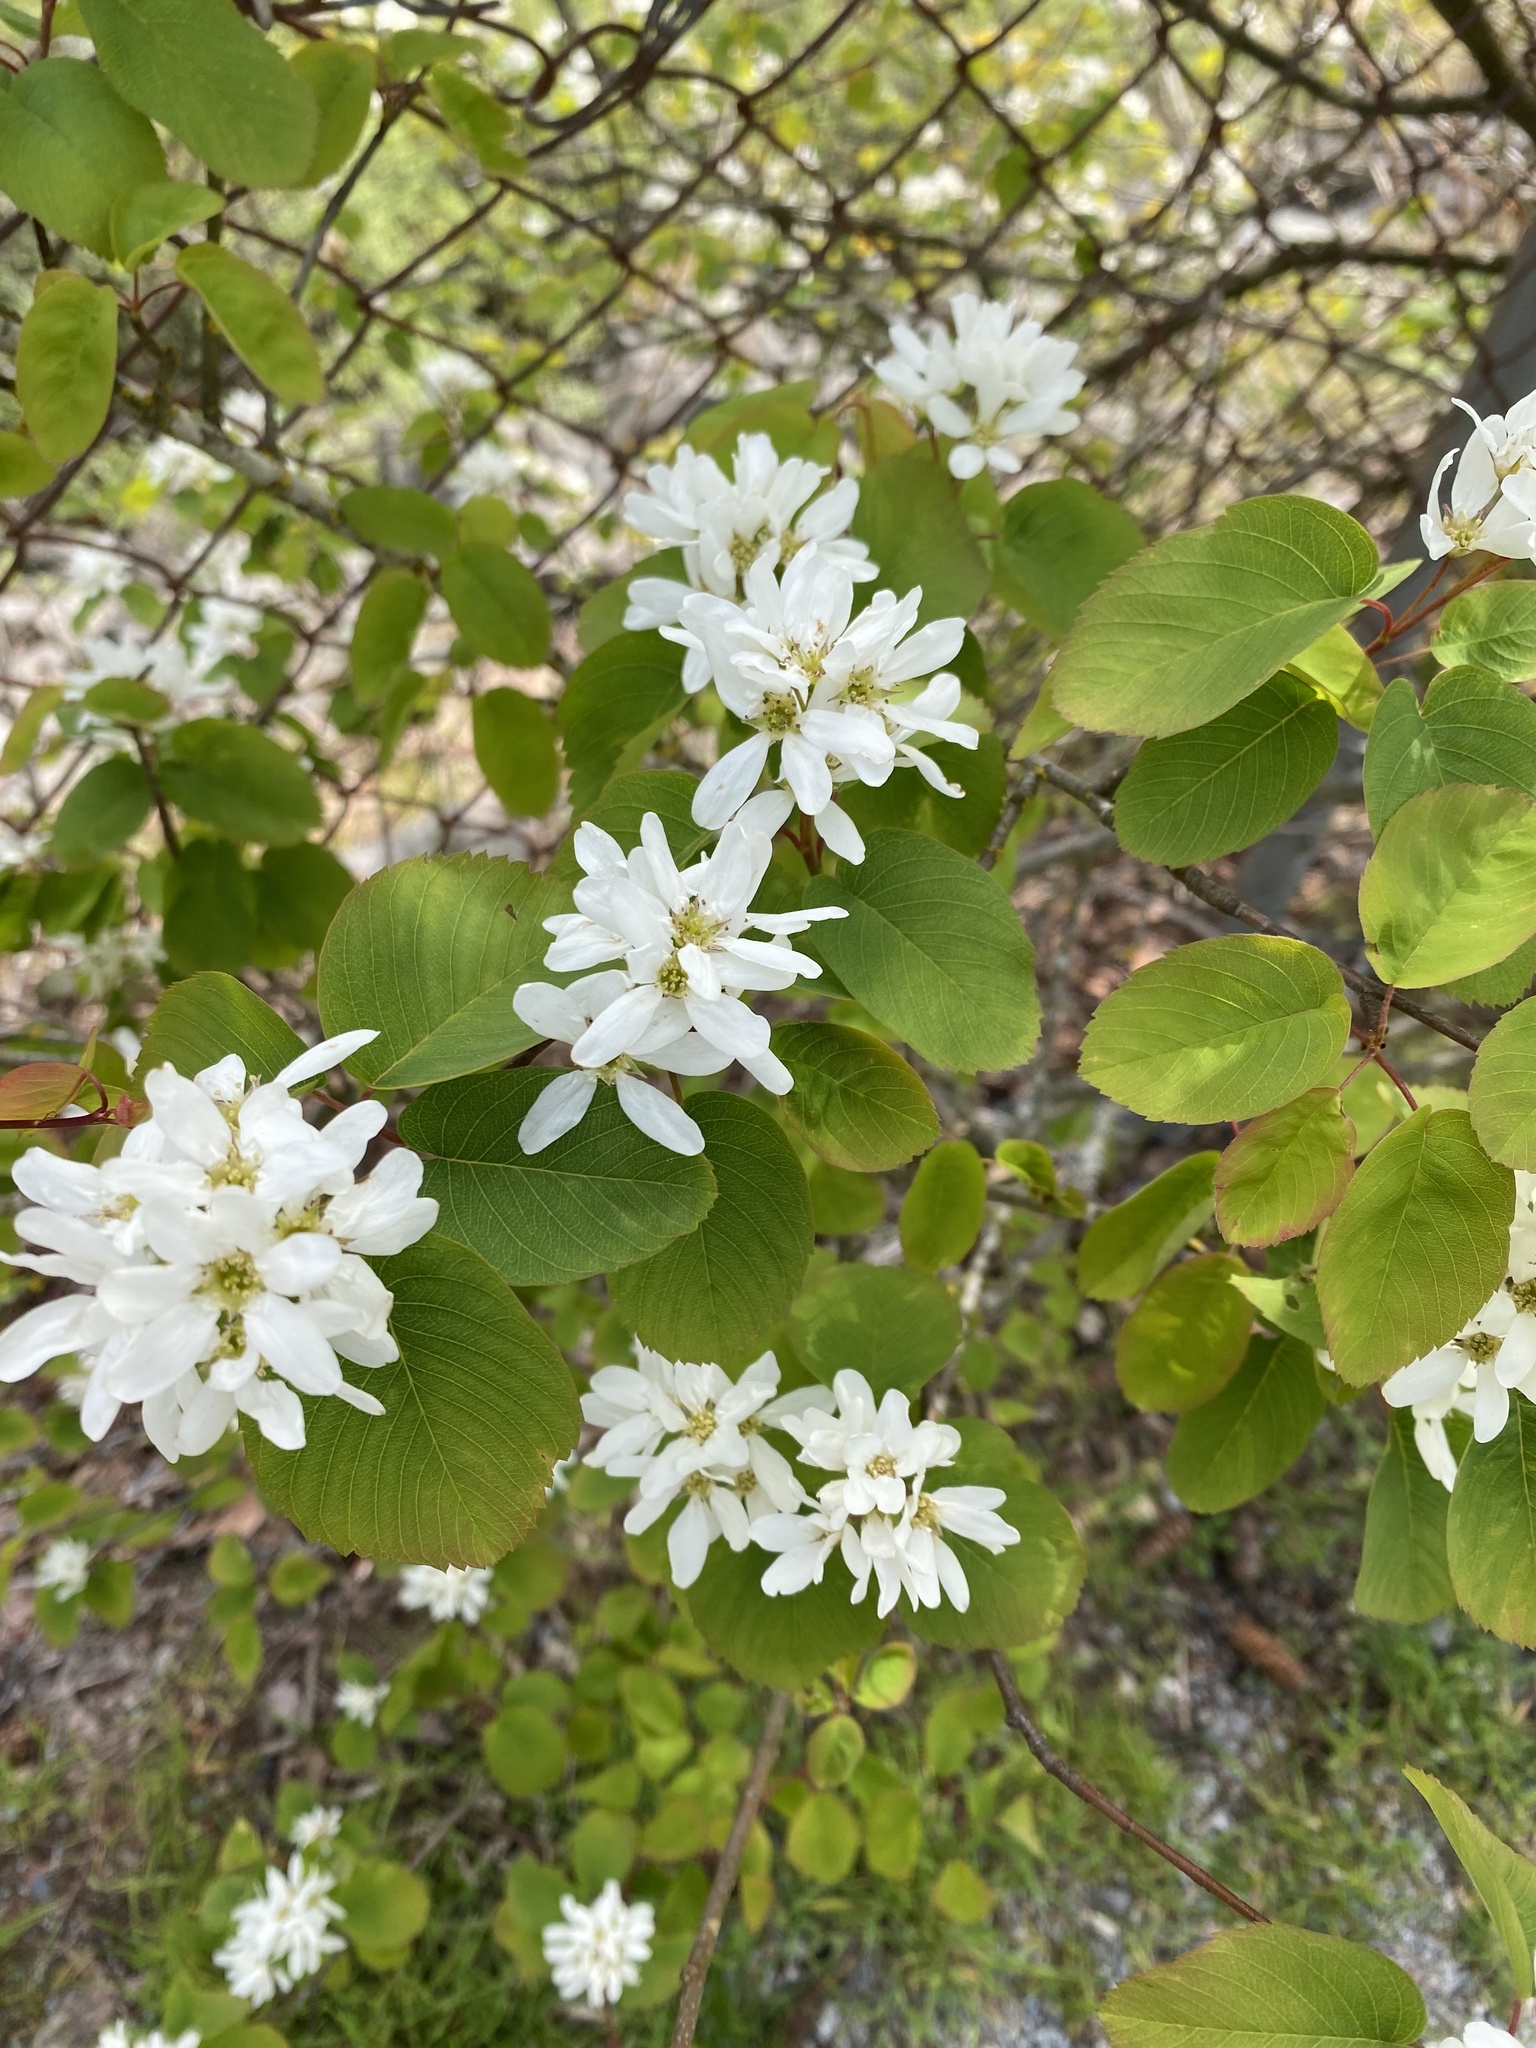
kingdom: Plantae
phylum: Tracheophyta
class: Magnoliopsida
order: Rosales
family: Rosaceae
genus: Amelanchier
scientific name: Amelanchier alnifolia
